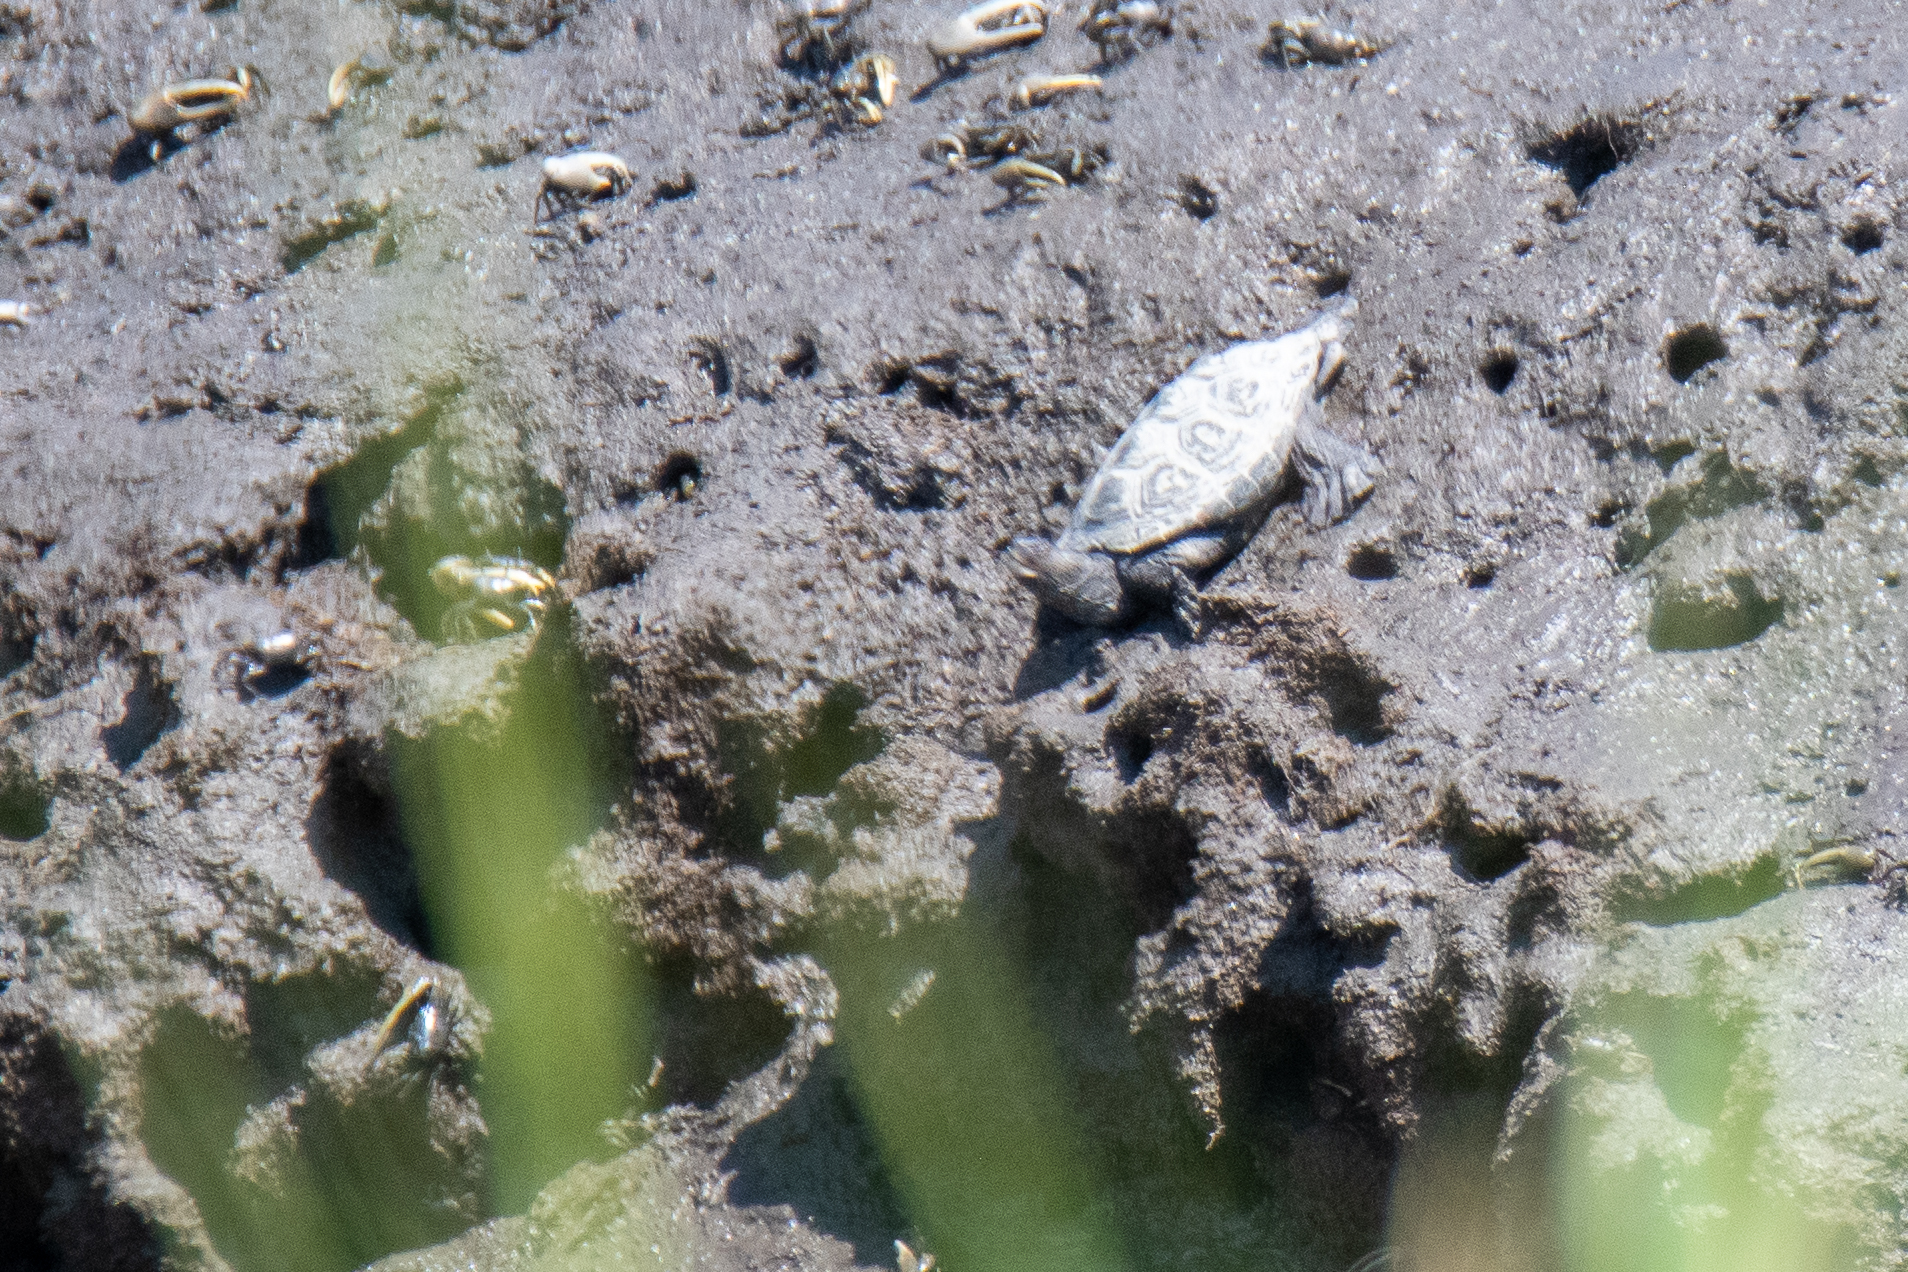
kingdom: Animalia
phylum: Chordata
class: Testudines
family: Emydidae
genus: Malaclemys
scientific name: Malaclemys terrapin
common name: Diamondback terrapin
